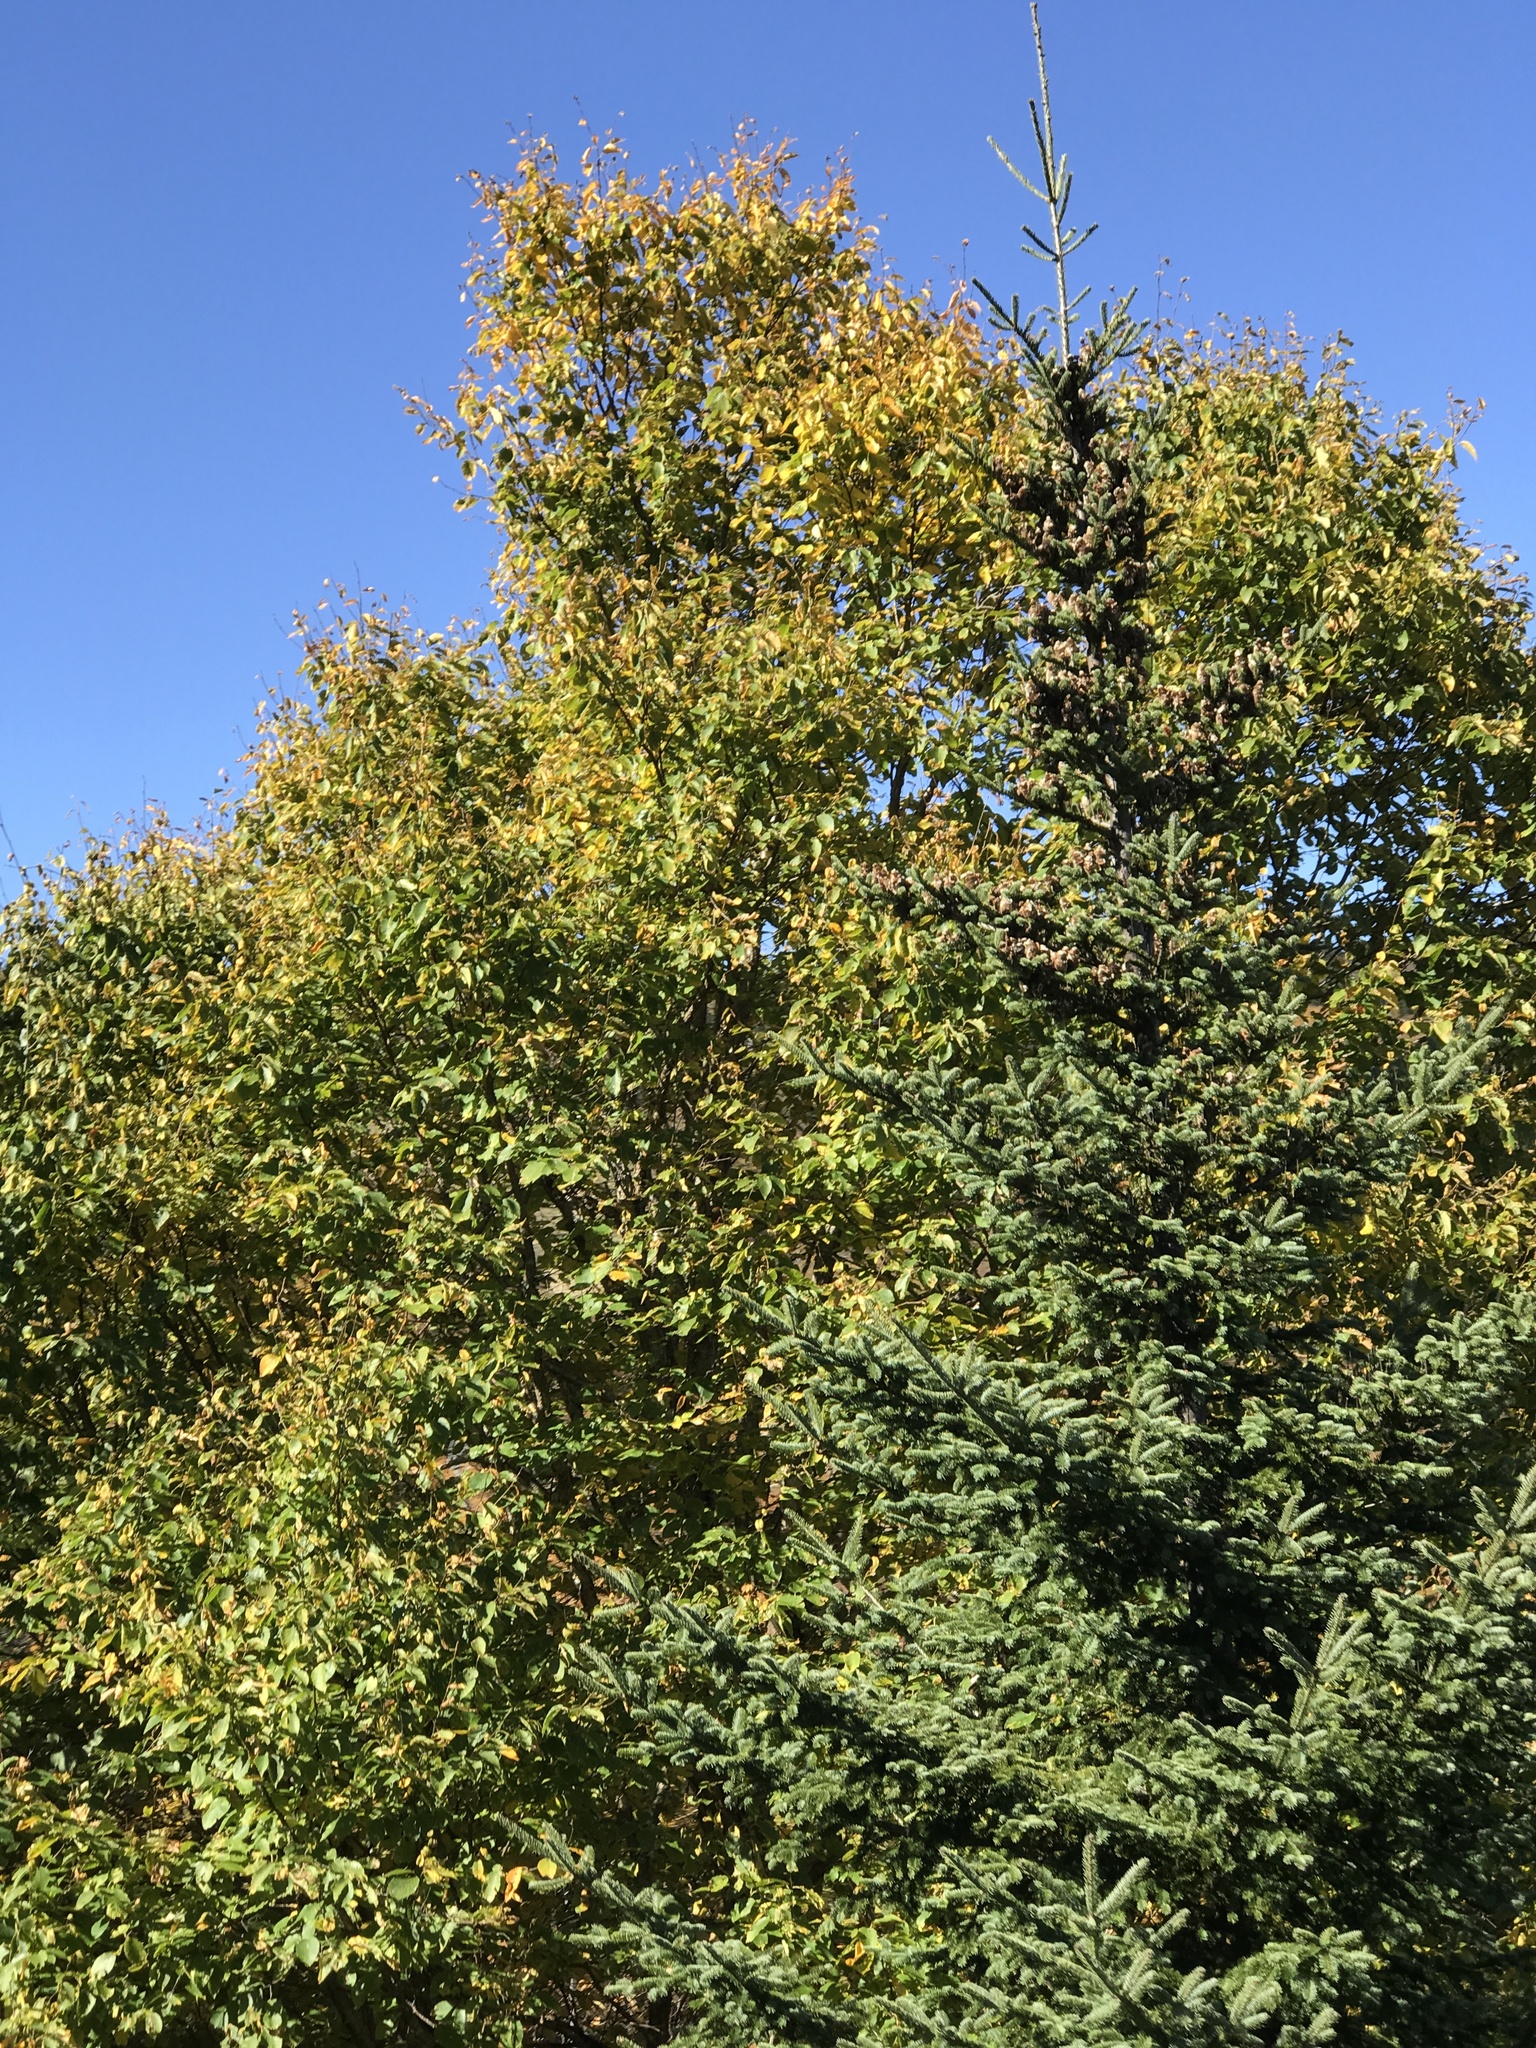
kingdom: Plantae
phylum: Tracheophyta
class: Pinopsida
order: Pinales
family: Pinaceae
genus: Abies
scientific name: Abies balsamea
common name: Balsam fir
